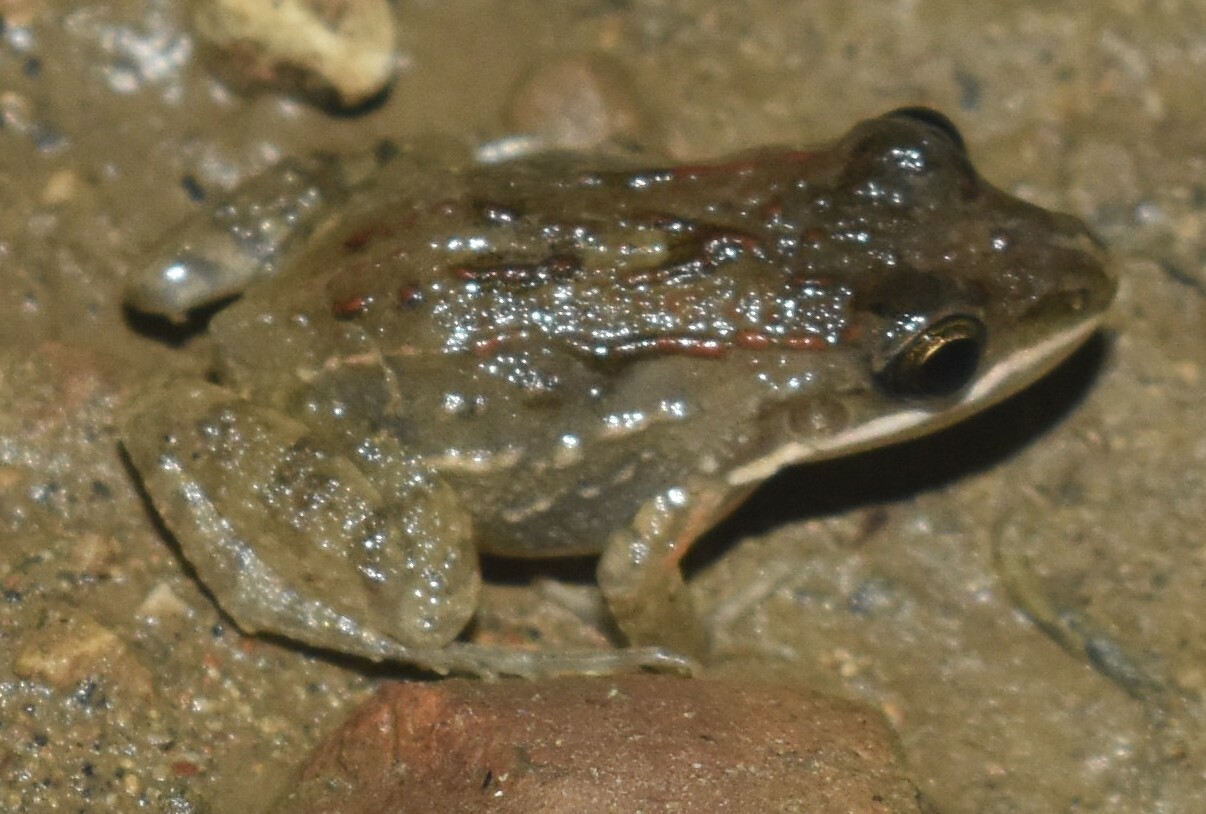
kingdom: Animalia
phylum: Chordata
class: Amphibia
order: Anura
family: Leptodactylidae
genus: Leptodactylus
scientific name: Leptodactylus fragilis
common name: Mexican white-lipped frog
